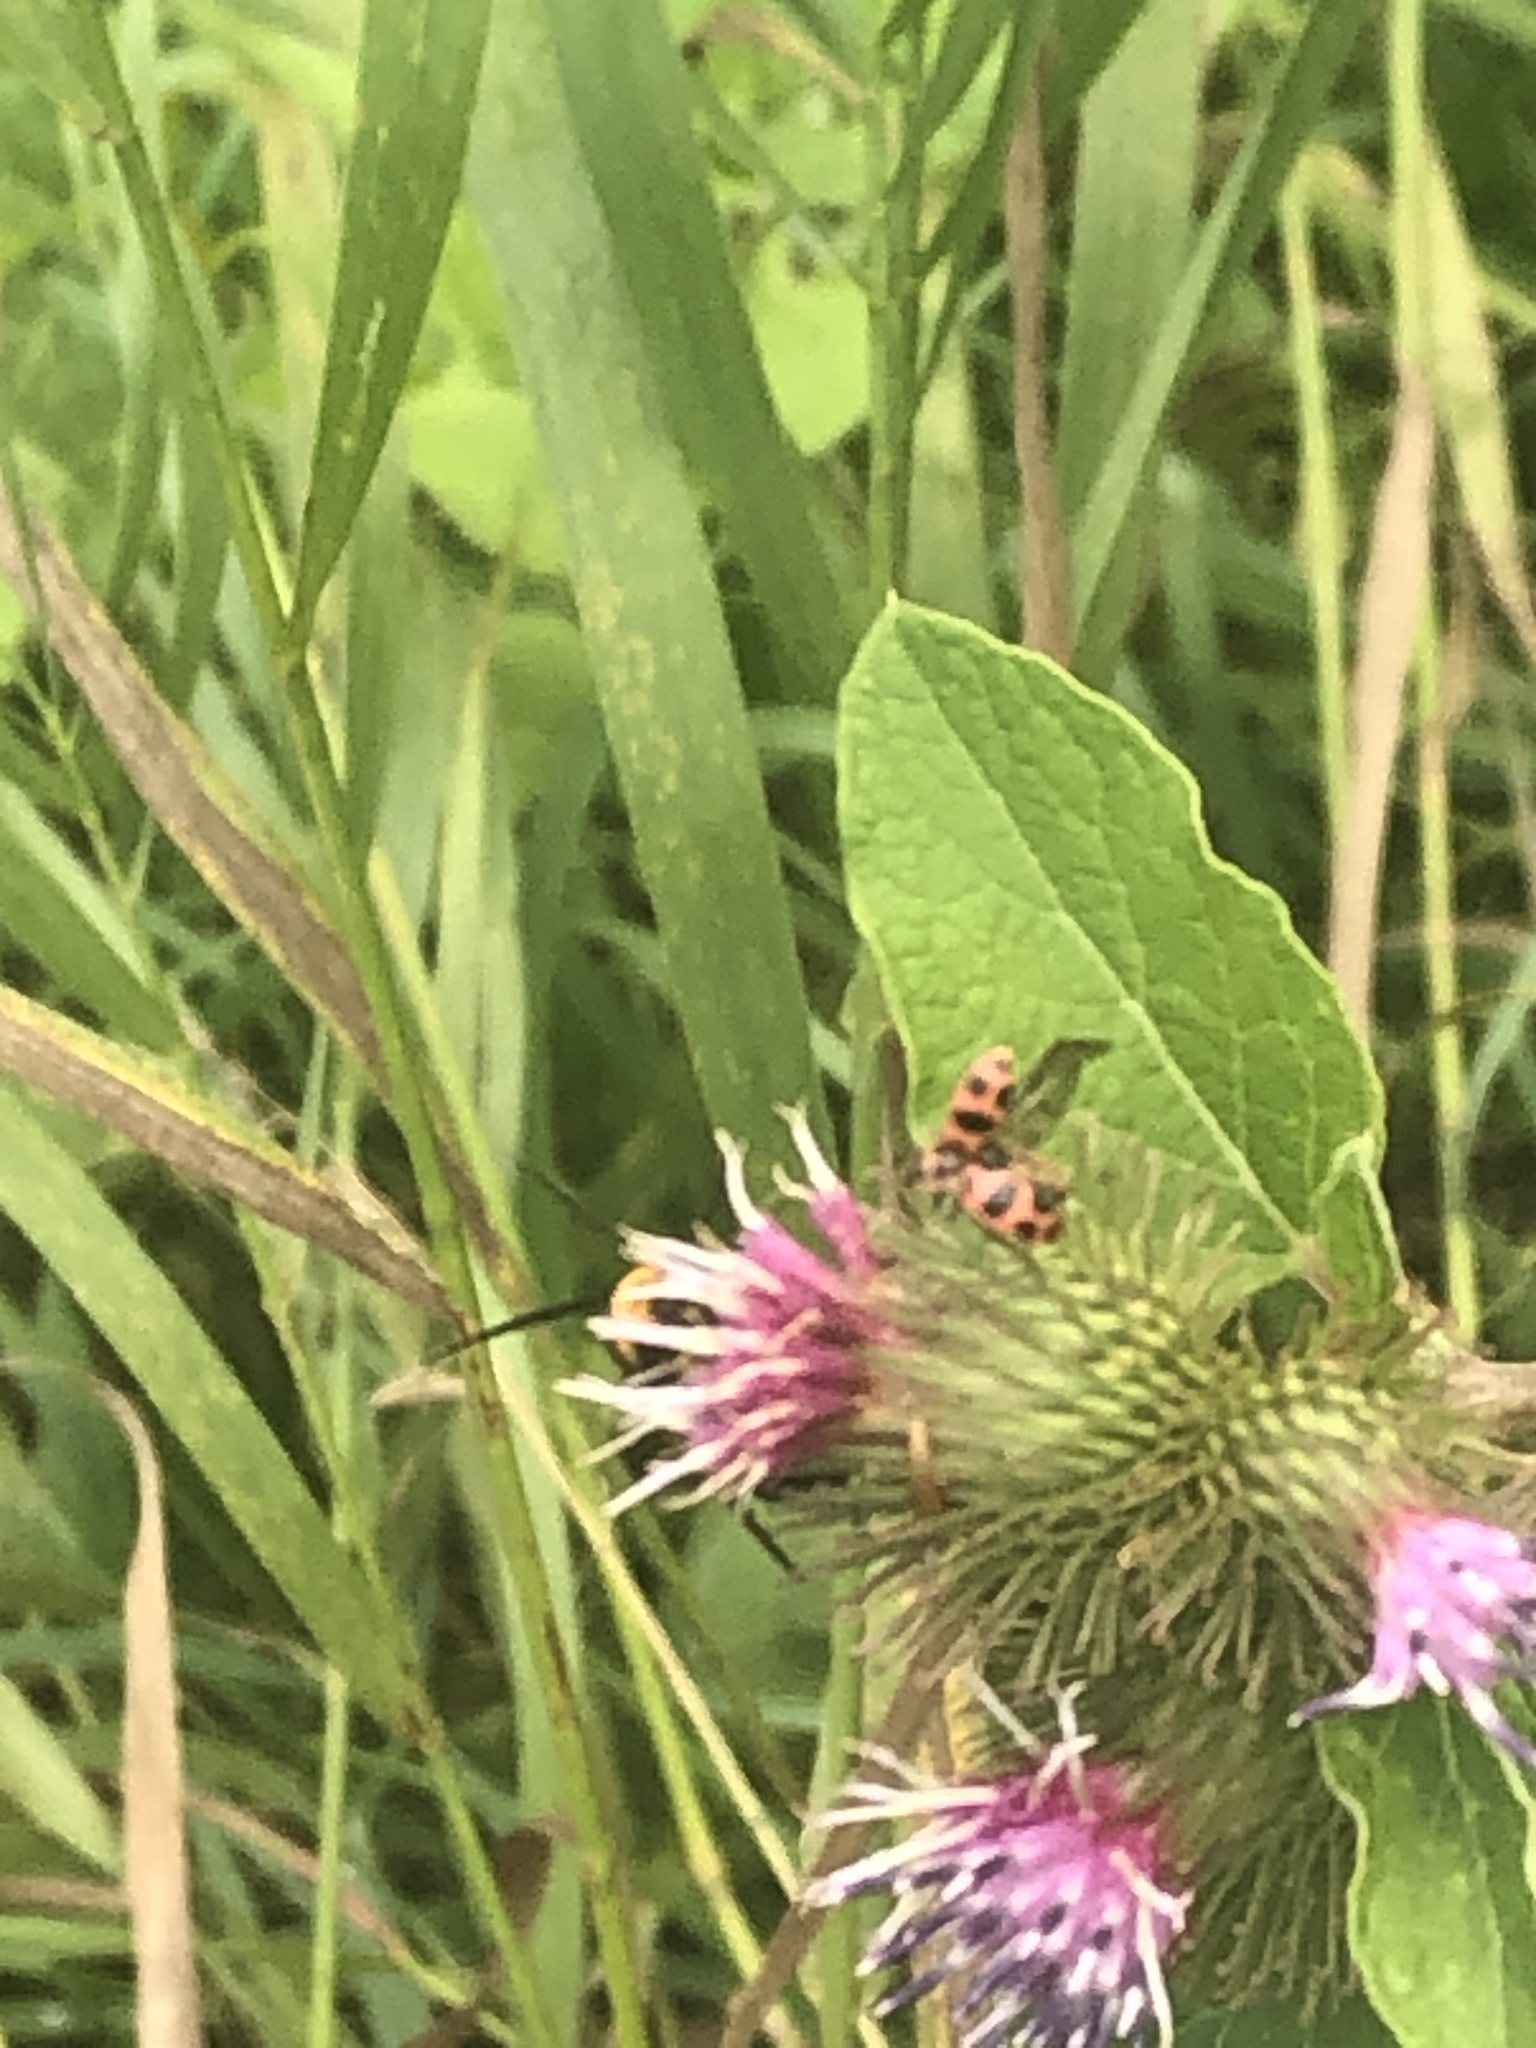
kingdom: Animalia
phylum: Arthropoda
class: Insecta
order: Coleoptera
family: Coccinellidae
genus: Coleomegilla
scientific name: Coleomegilla maculata
